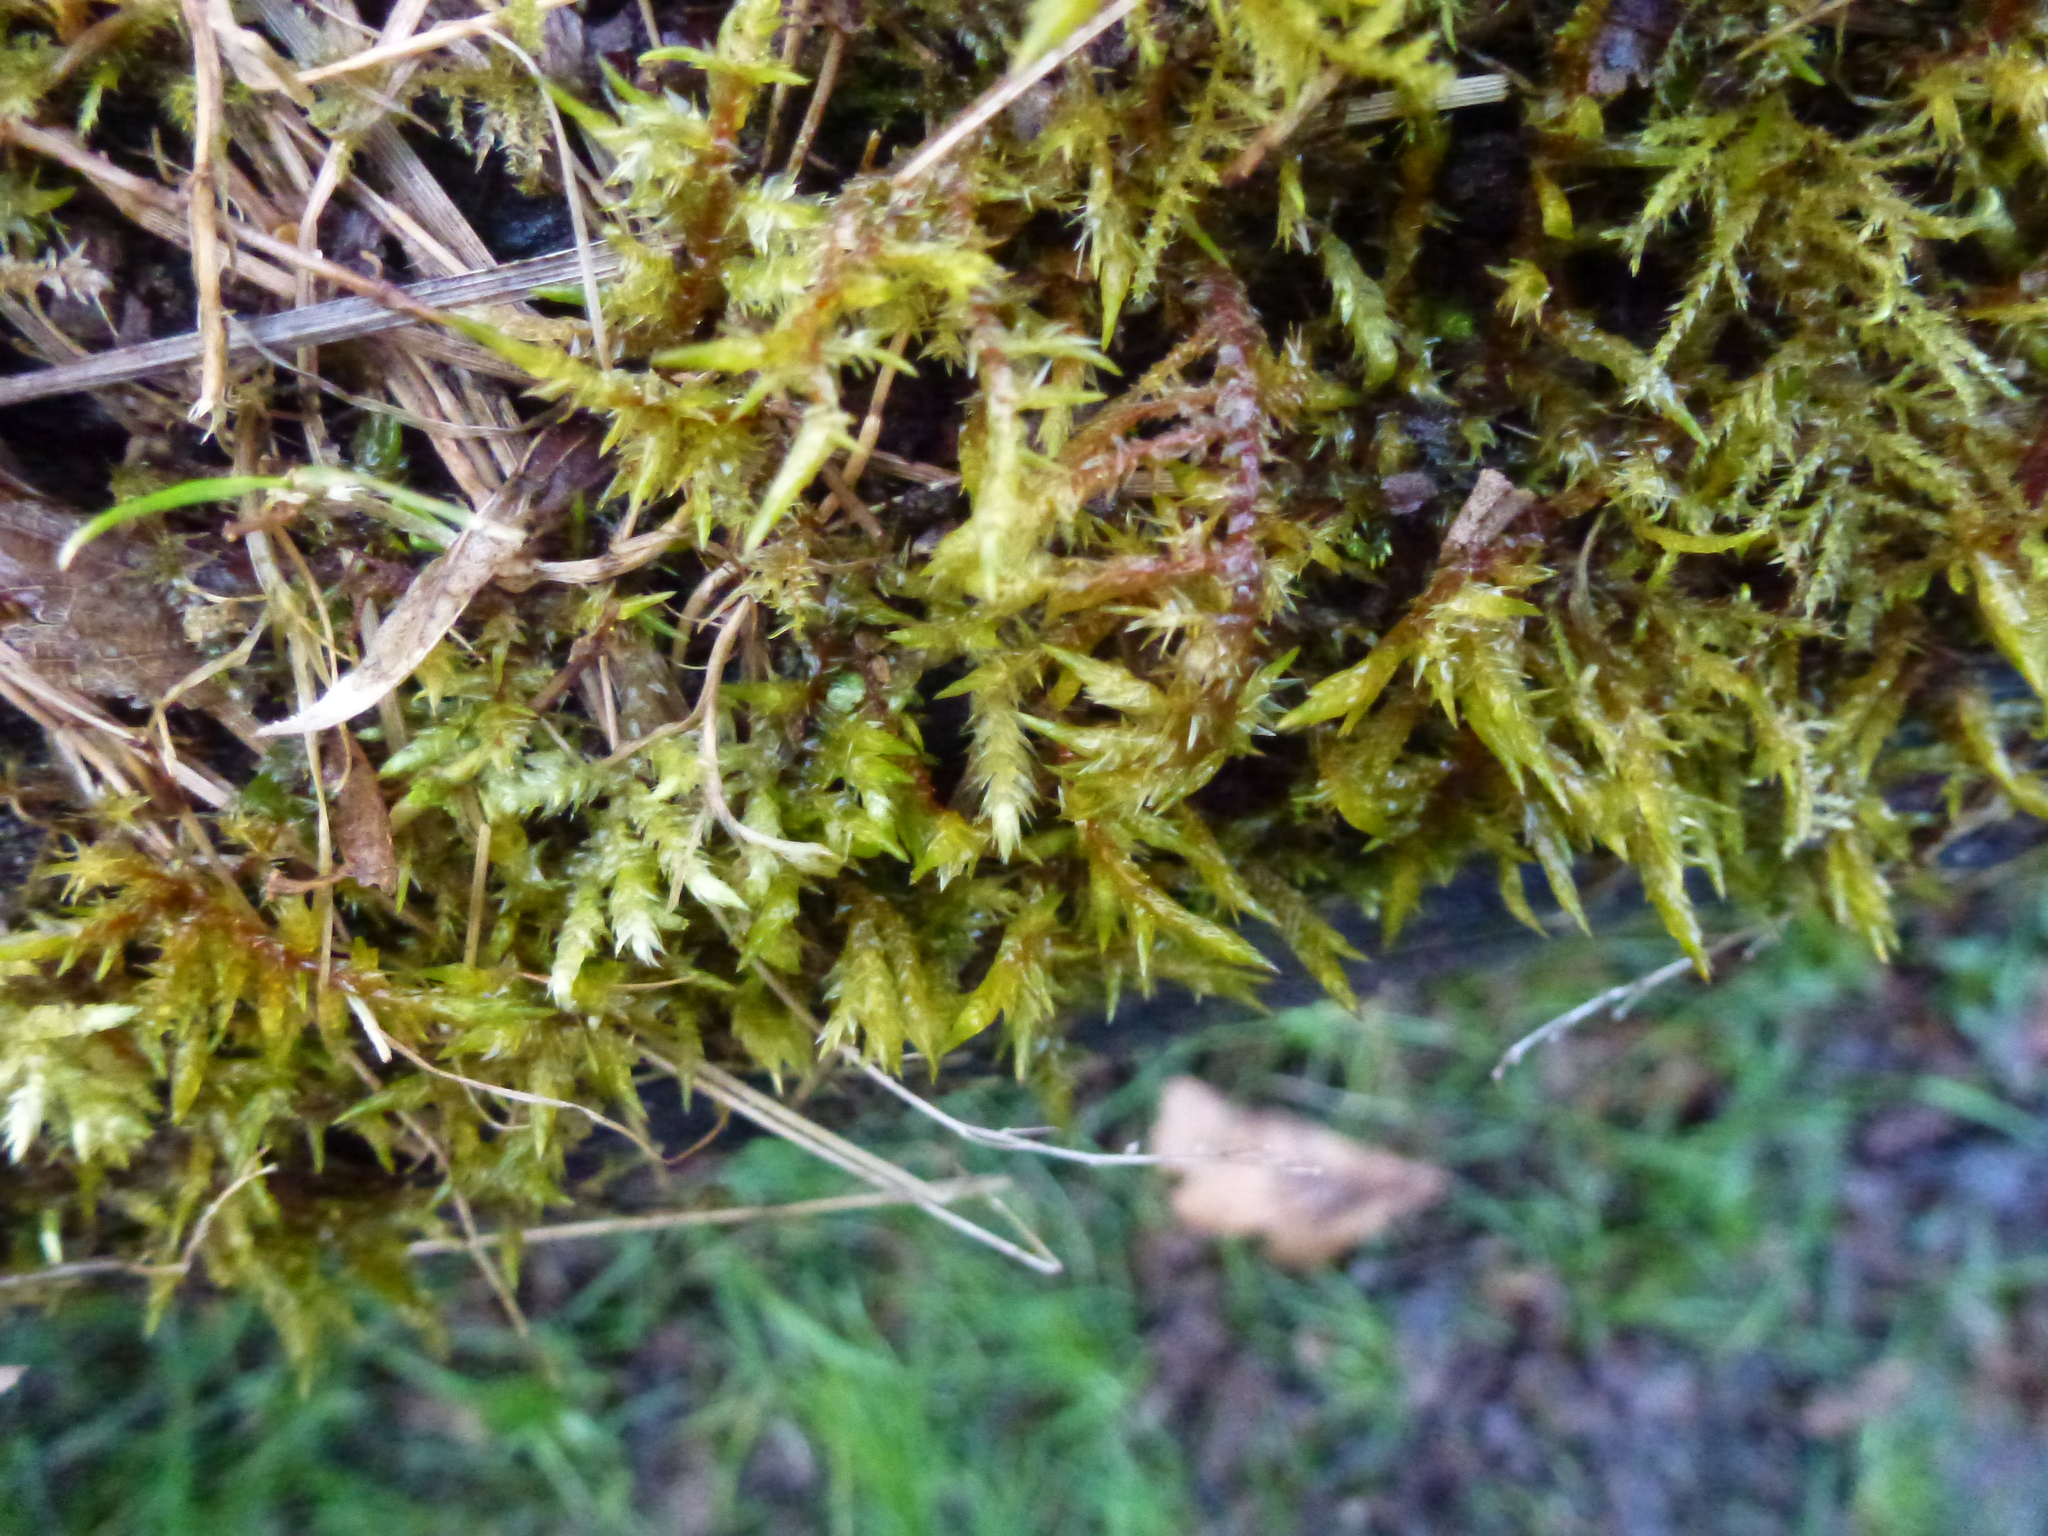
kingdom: Plantae
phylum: Bryophyta
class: Bryopsida
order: Hypnales
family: Pylaisiaceae
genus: Calliergonella
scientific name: Calliergonella cuspidata
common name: Common large wetland moss
